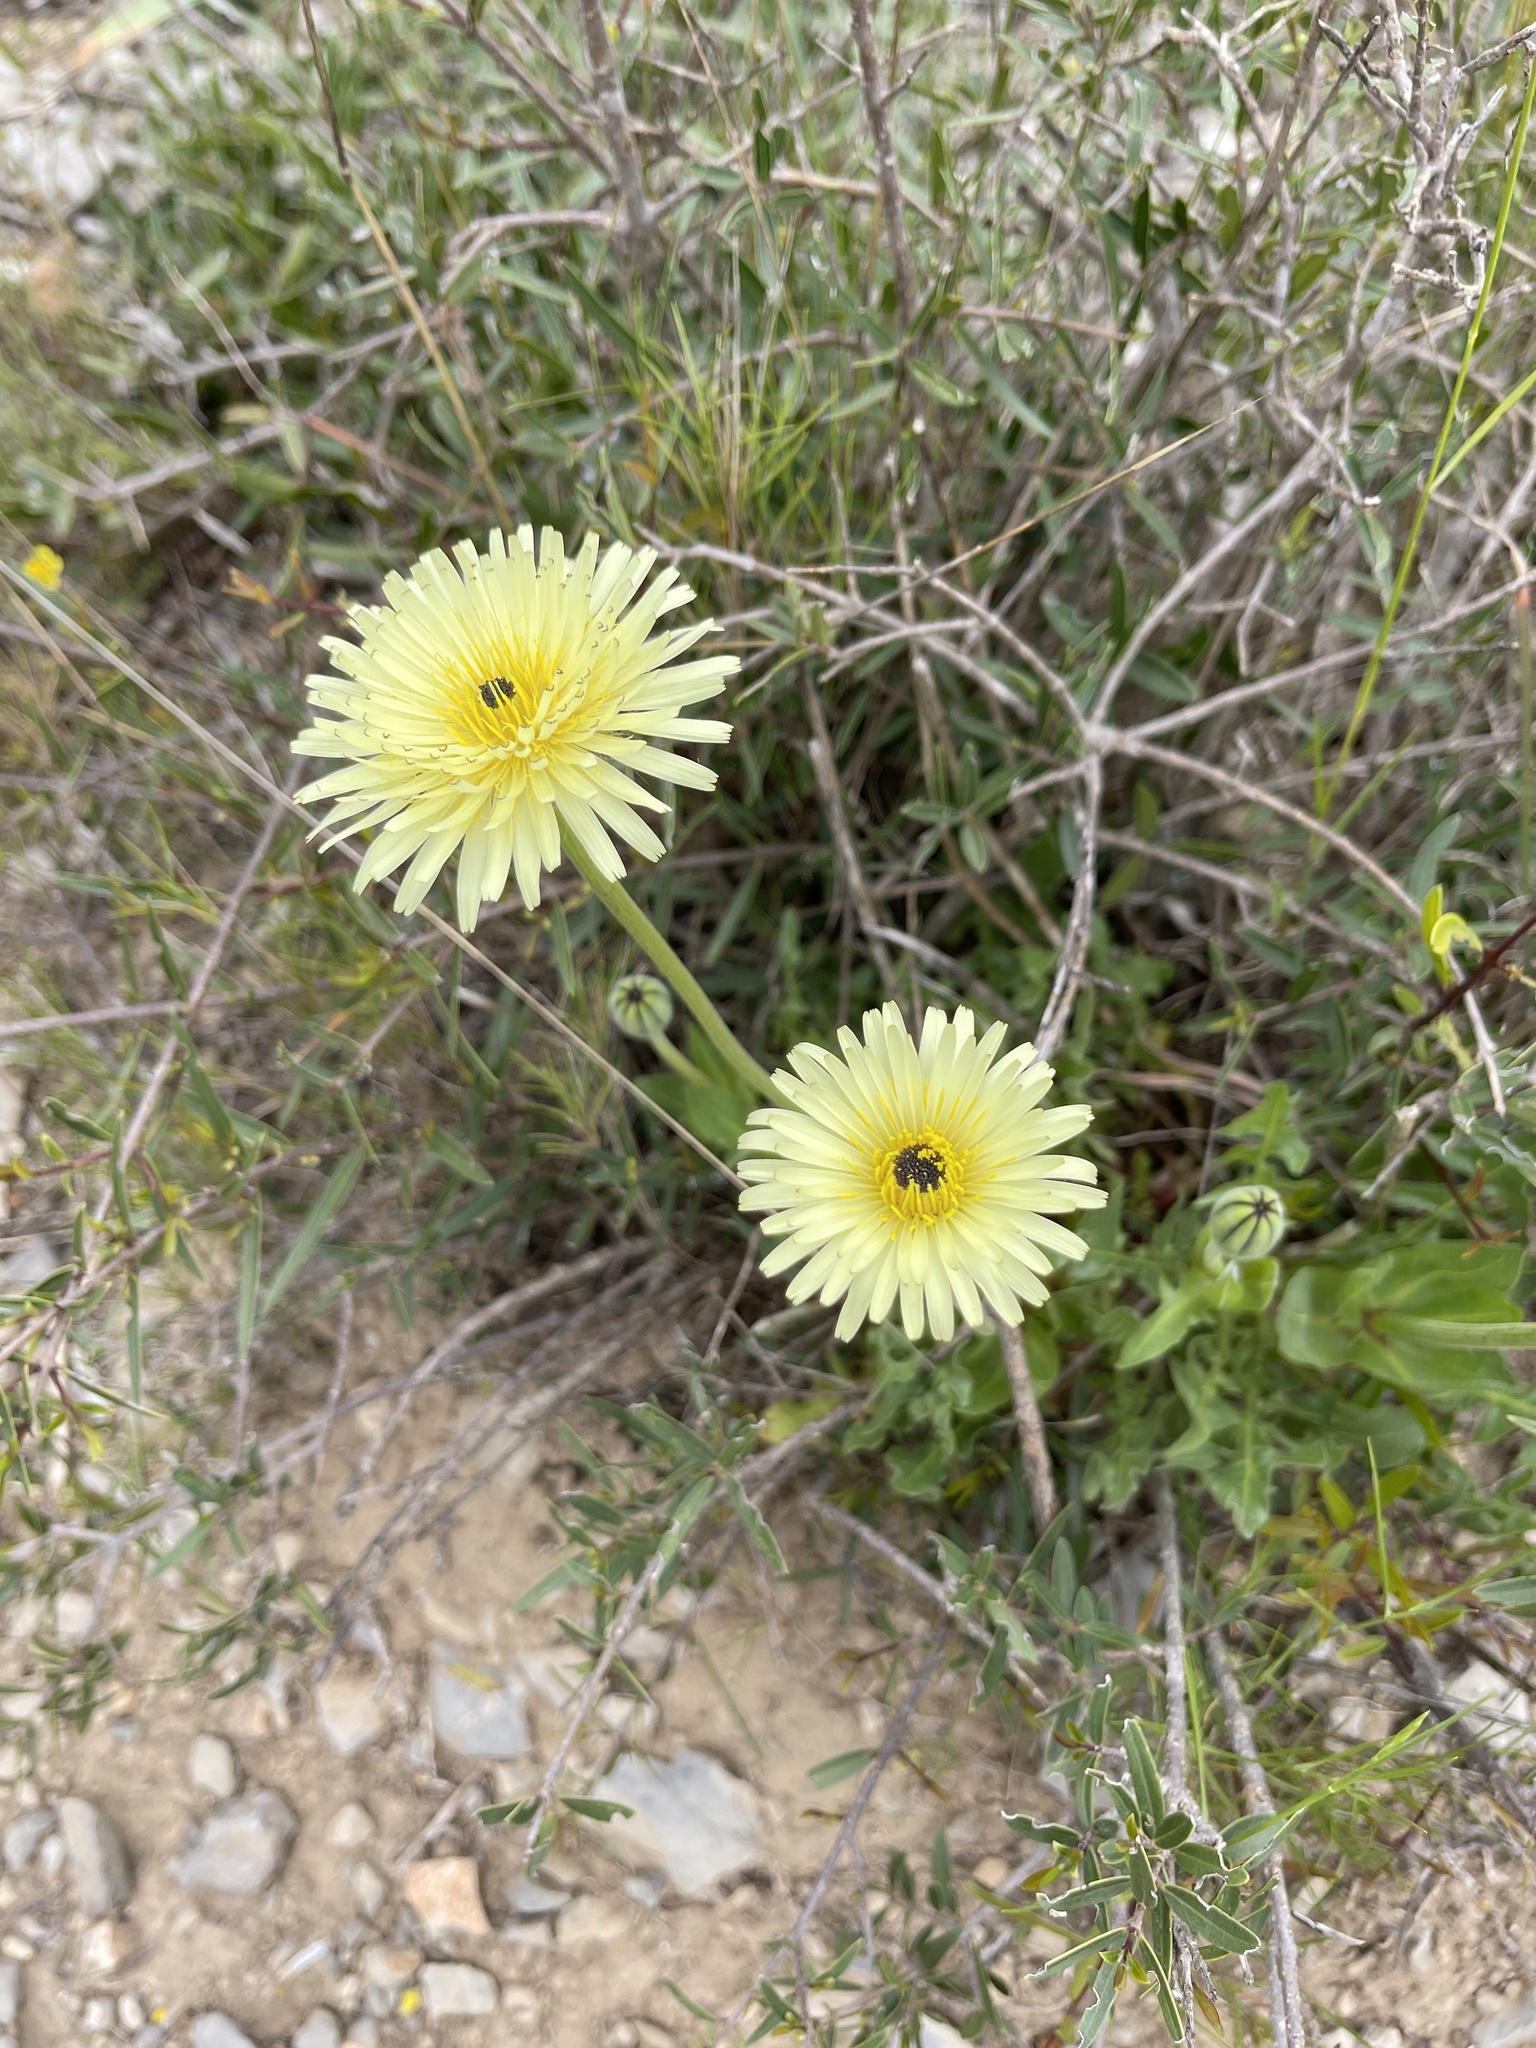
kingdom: Plantae
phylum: Tracheophyta
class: Magnoliopsida
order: Asterales
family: Asteraceae
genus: Urospermum
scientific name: Urospermum dalechampii
